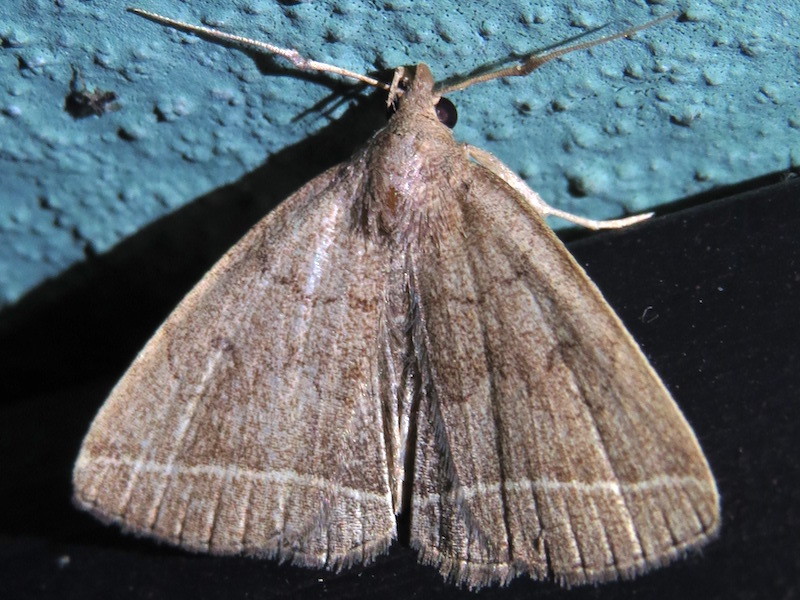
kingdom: Animalia
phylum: Arthropoda
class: Insecta
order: Lepidoptera
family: Erebidae
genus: Zanclognatha
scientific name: Zanclognatha marcidilinea
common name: Yellowish fan-foot
